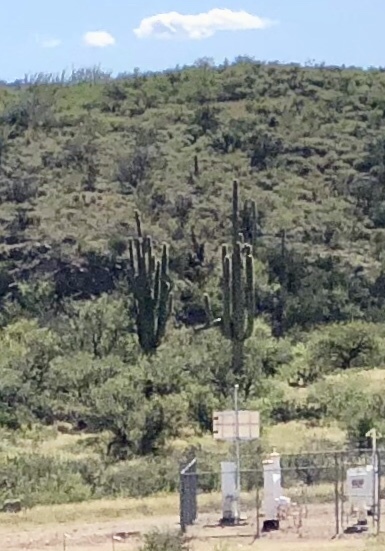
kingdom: Plantae
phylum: Tracheophyta
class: Magnoliopsida
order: Caryophyllales
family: Cactaceae
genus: Carnegiea
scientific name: Carnegiea gigantea
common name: Saguaro
